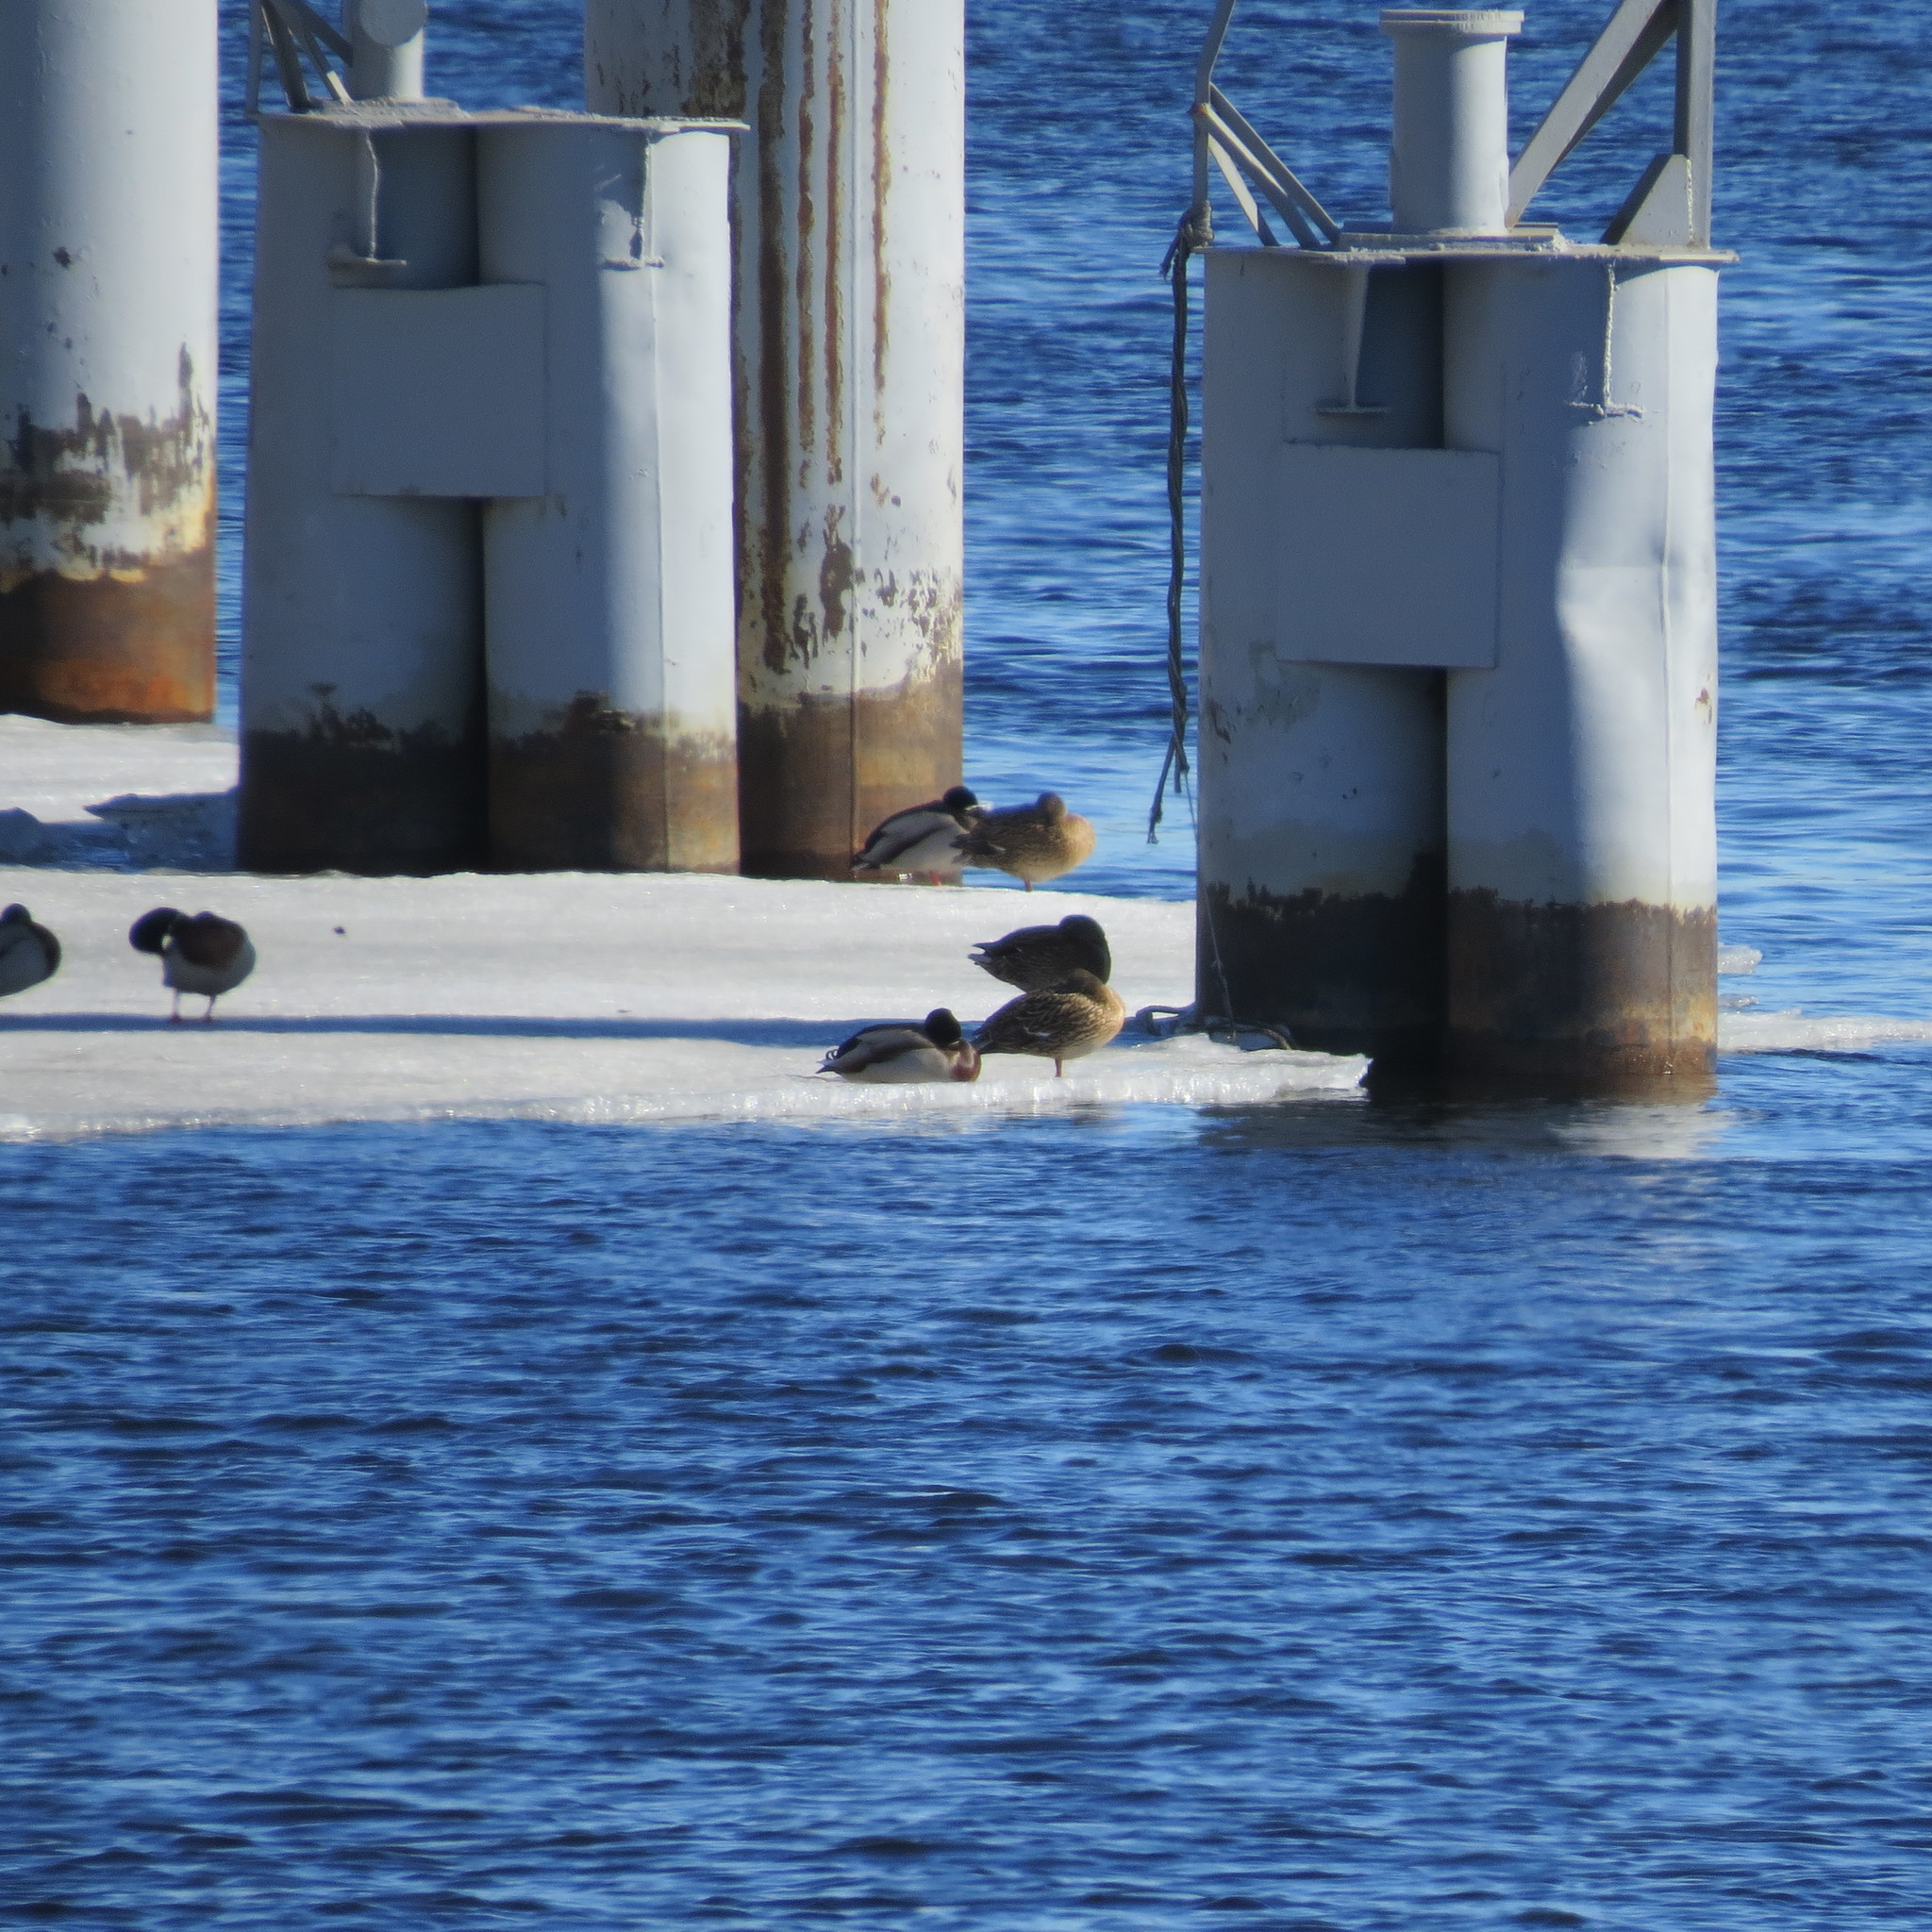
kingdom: Animalia
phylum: Chordata
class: Aves
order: Anseriformes
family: Anatidae
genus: Anas
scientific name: Anas platyrhynchos
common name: Mallard
